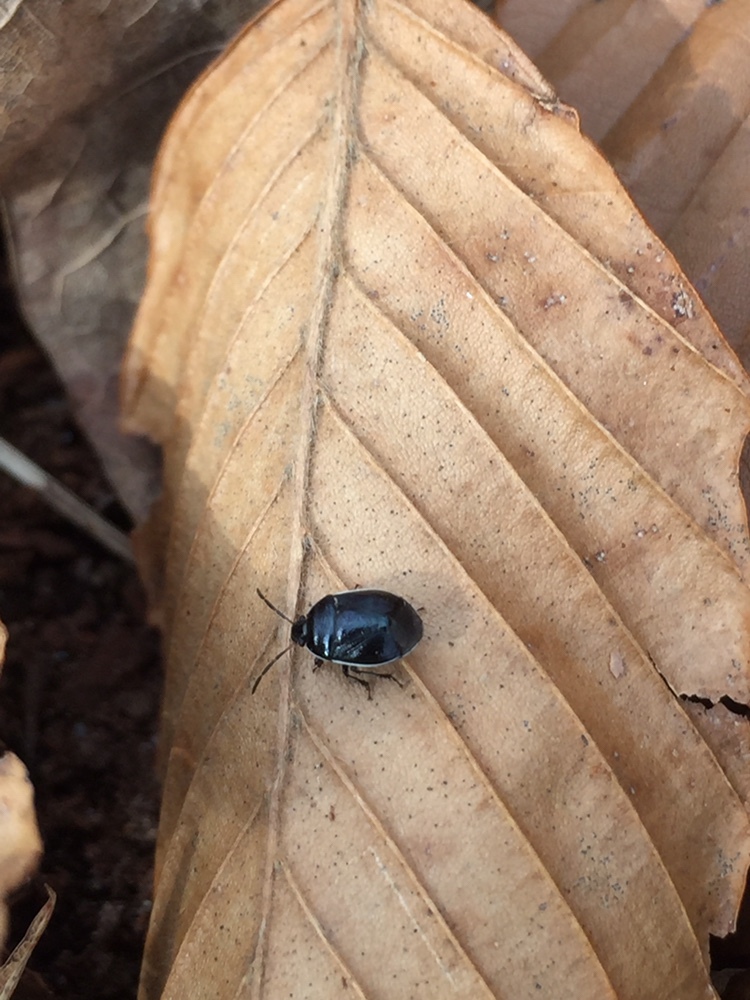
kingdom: Animalia
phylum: Arthropoda
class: Insecta
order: Hemiptera
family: Cydnidae
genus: Sehirus
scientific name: Sehirus cinctus
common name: White-margined burrower bug
